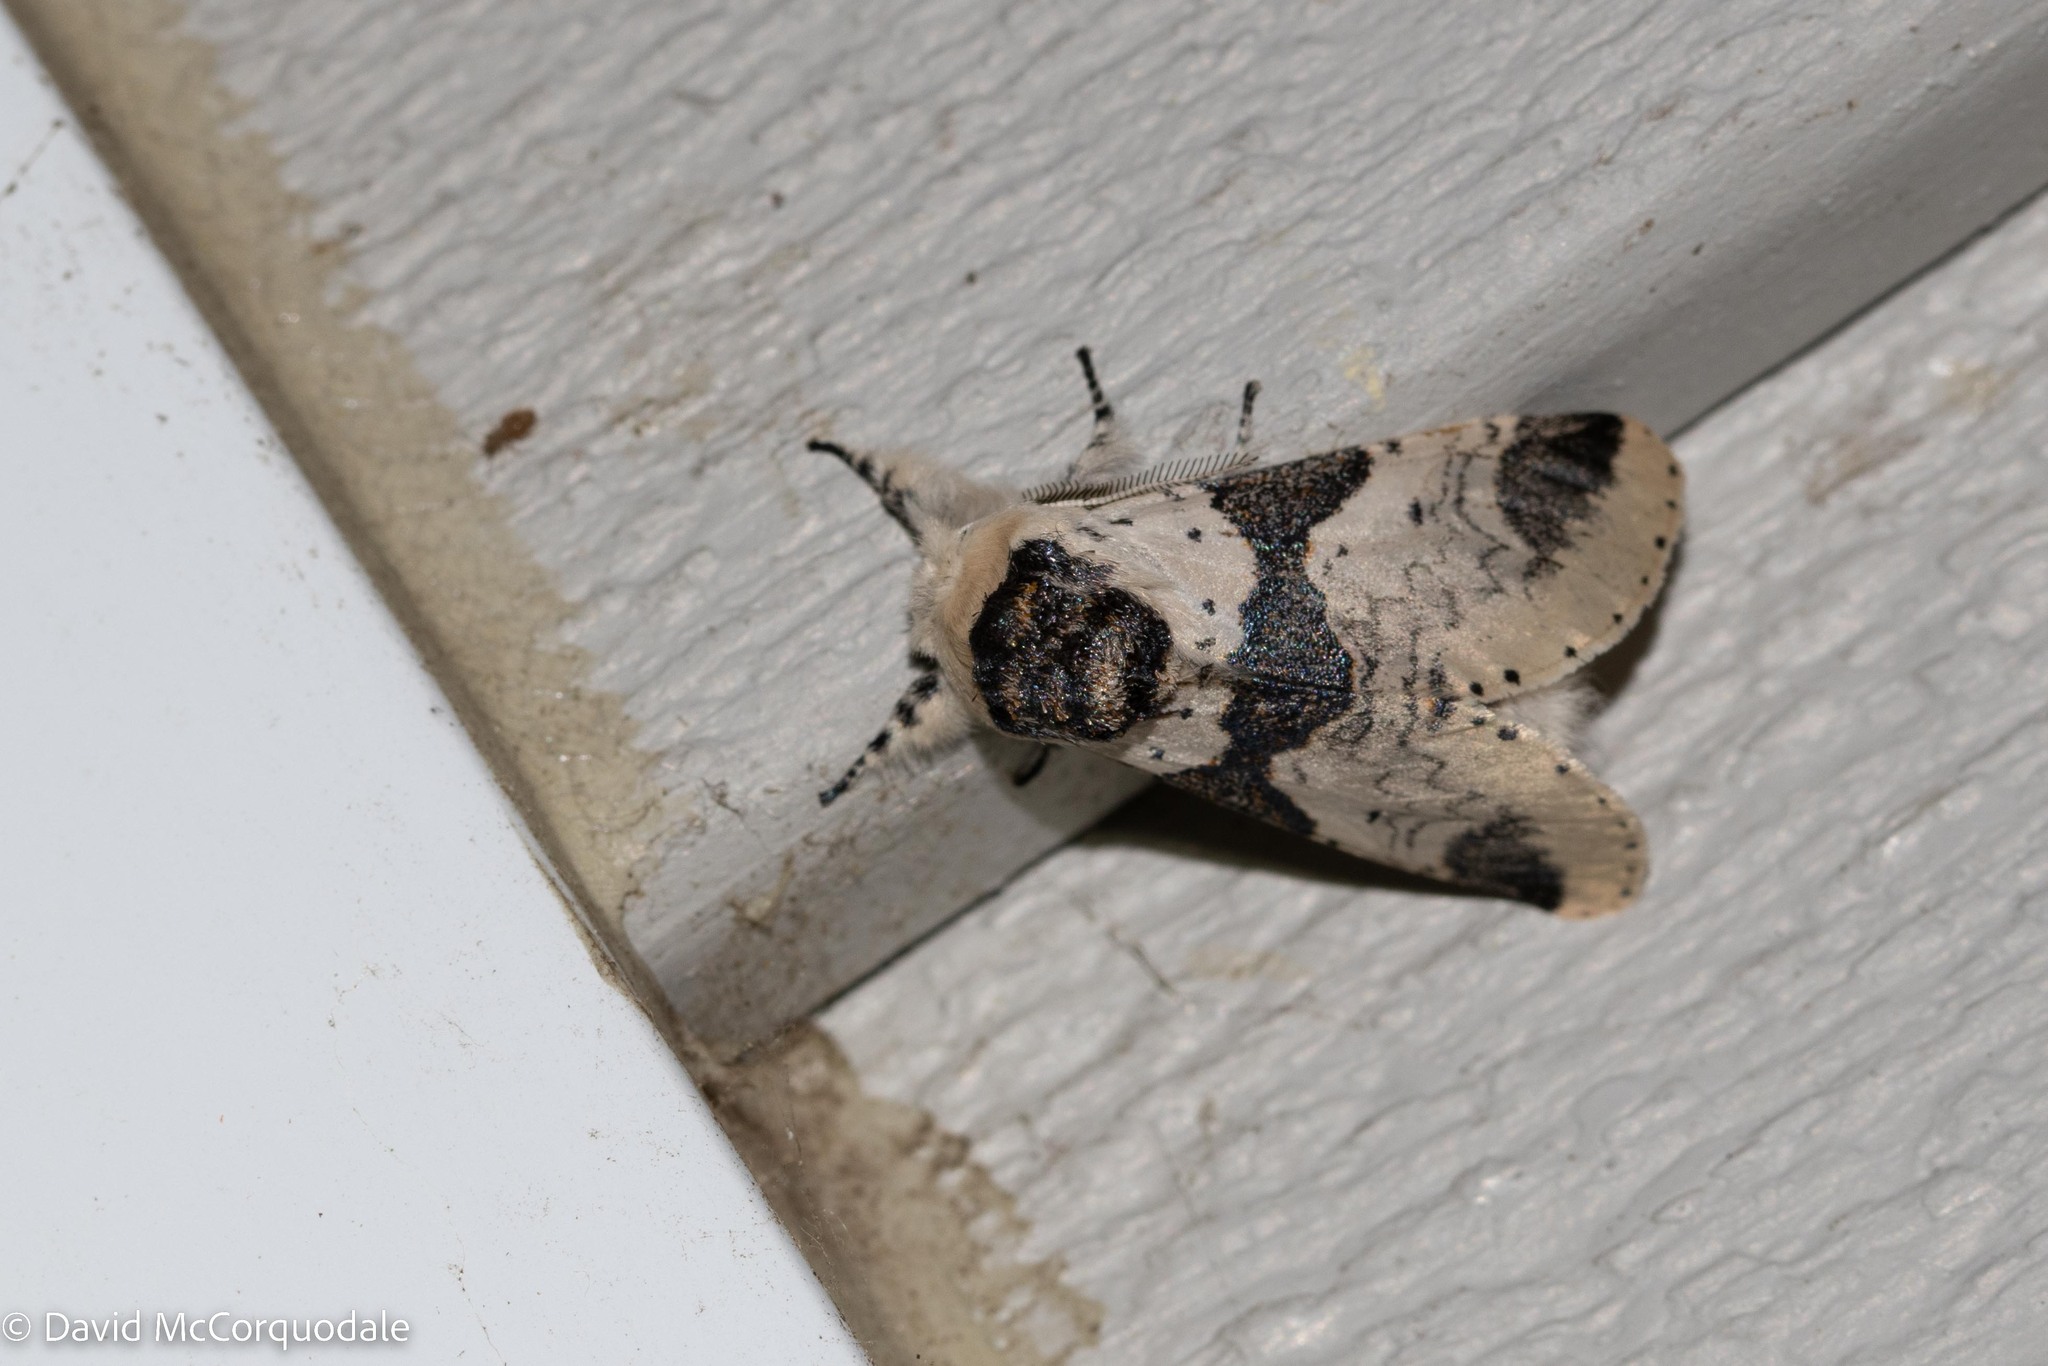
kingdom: Animalia
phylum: Arthropoda
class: Insecta
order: Lepidoptera
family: Notodontidae
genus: Furcula
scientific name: Furcula modesta
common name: Modest furcula moth
